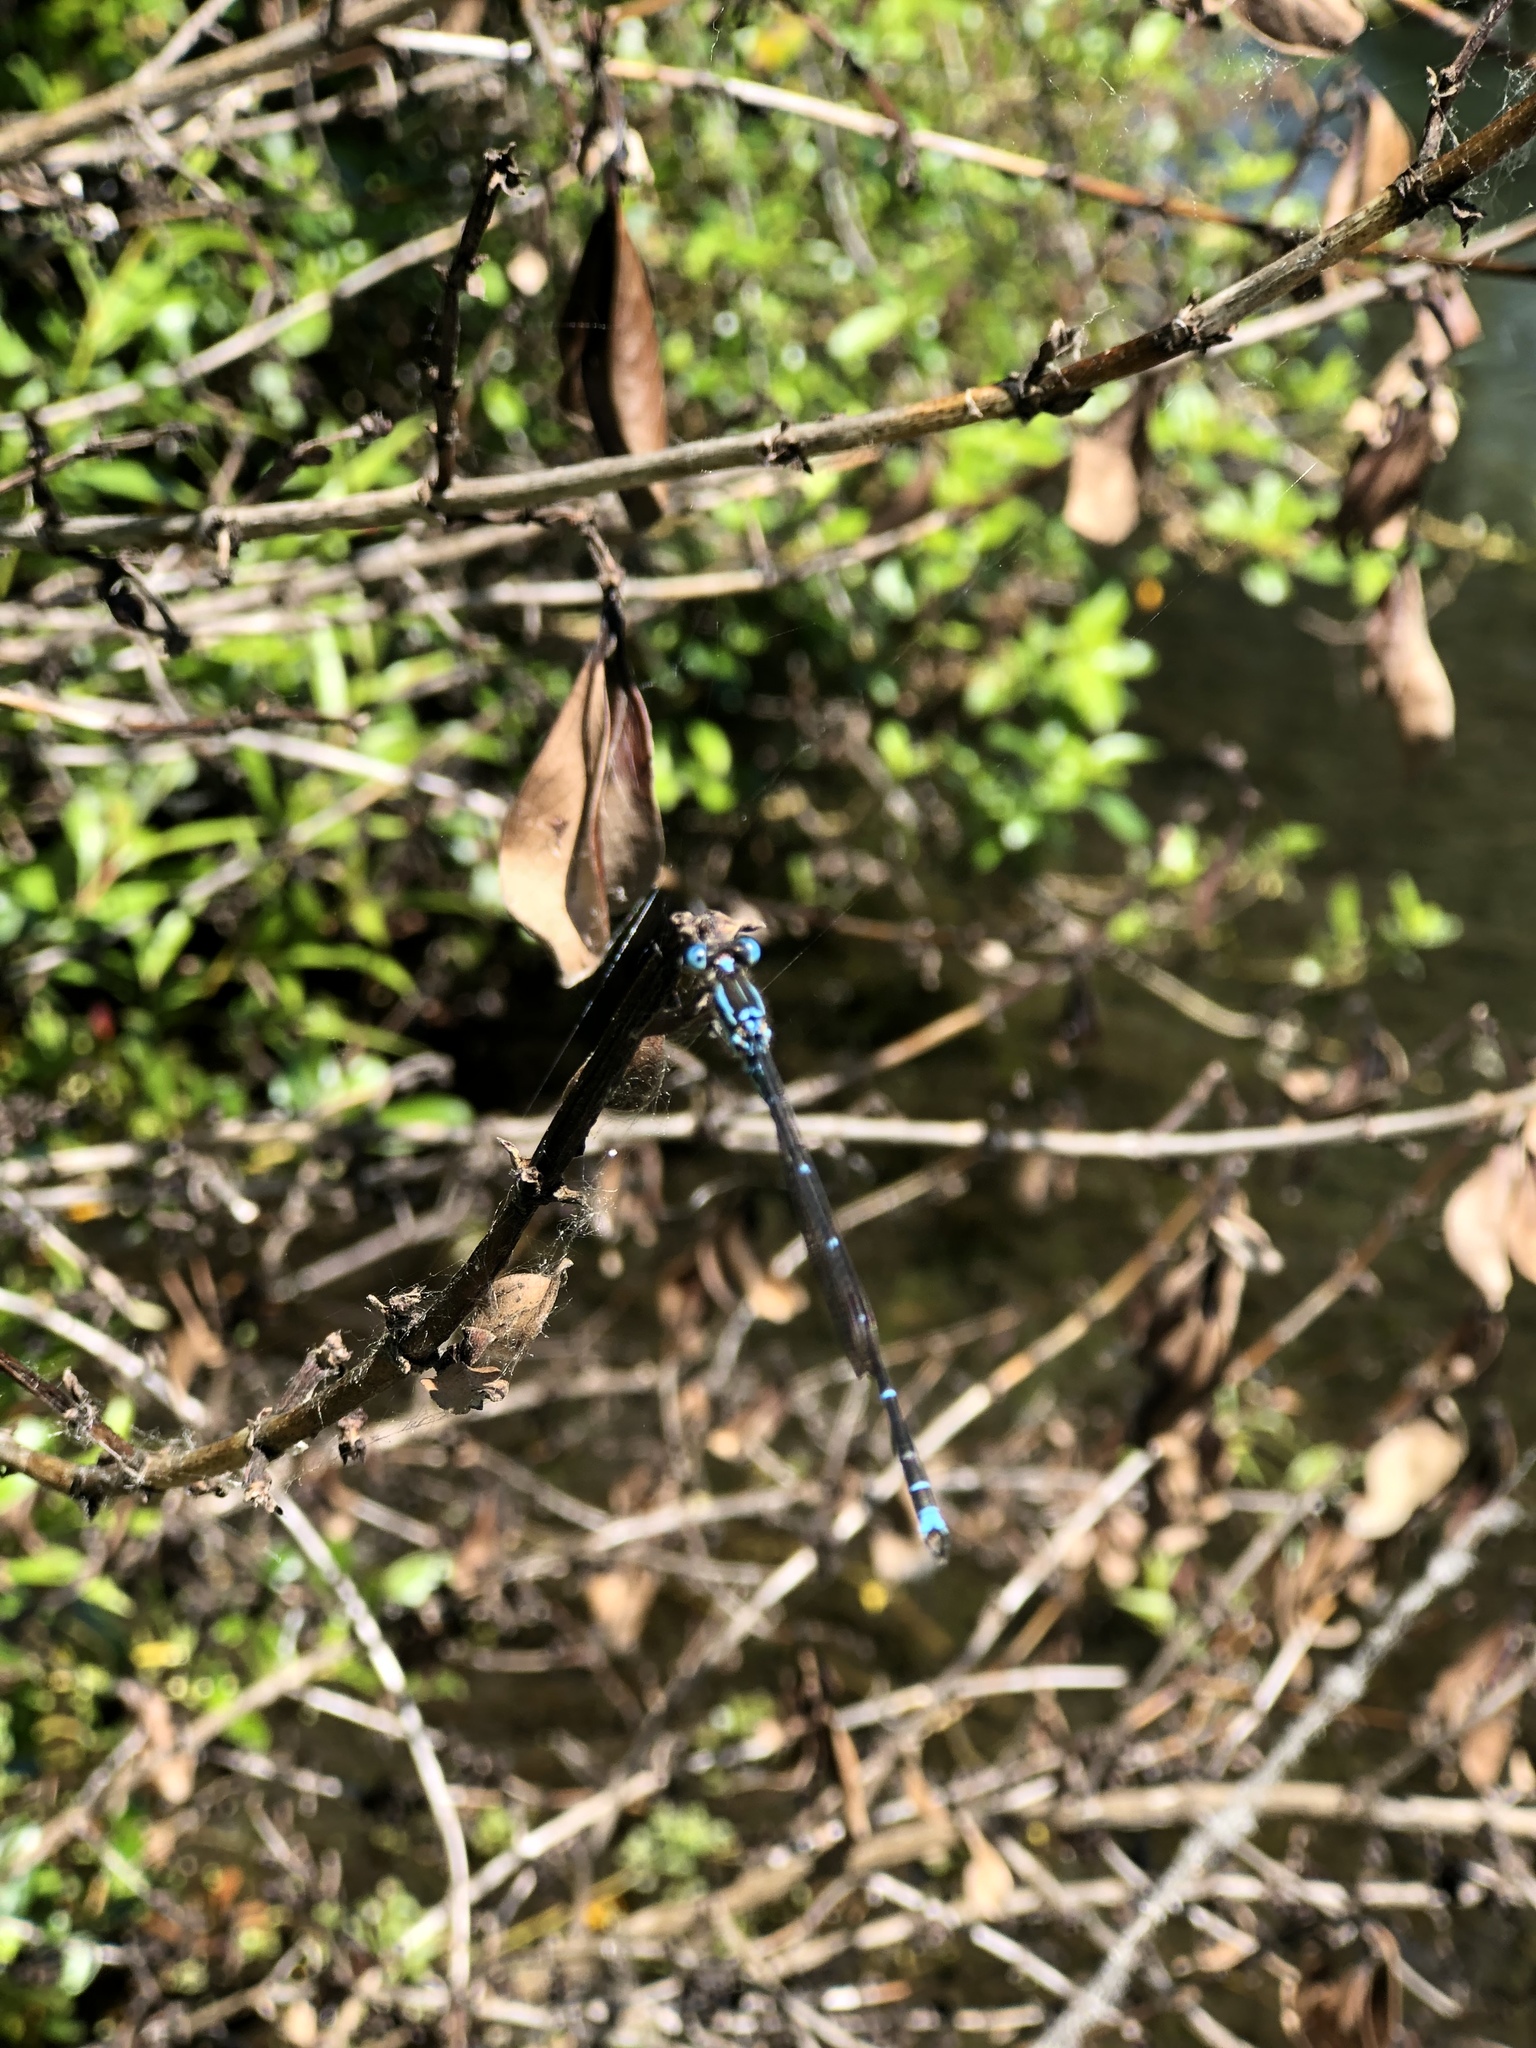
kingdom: Animalia
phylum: Arthropoda
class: Insecta
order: Odonata
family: Lestidae
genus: Austrolestes
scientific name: Austrolestes colensonis
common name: Blue damselfly
